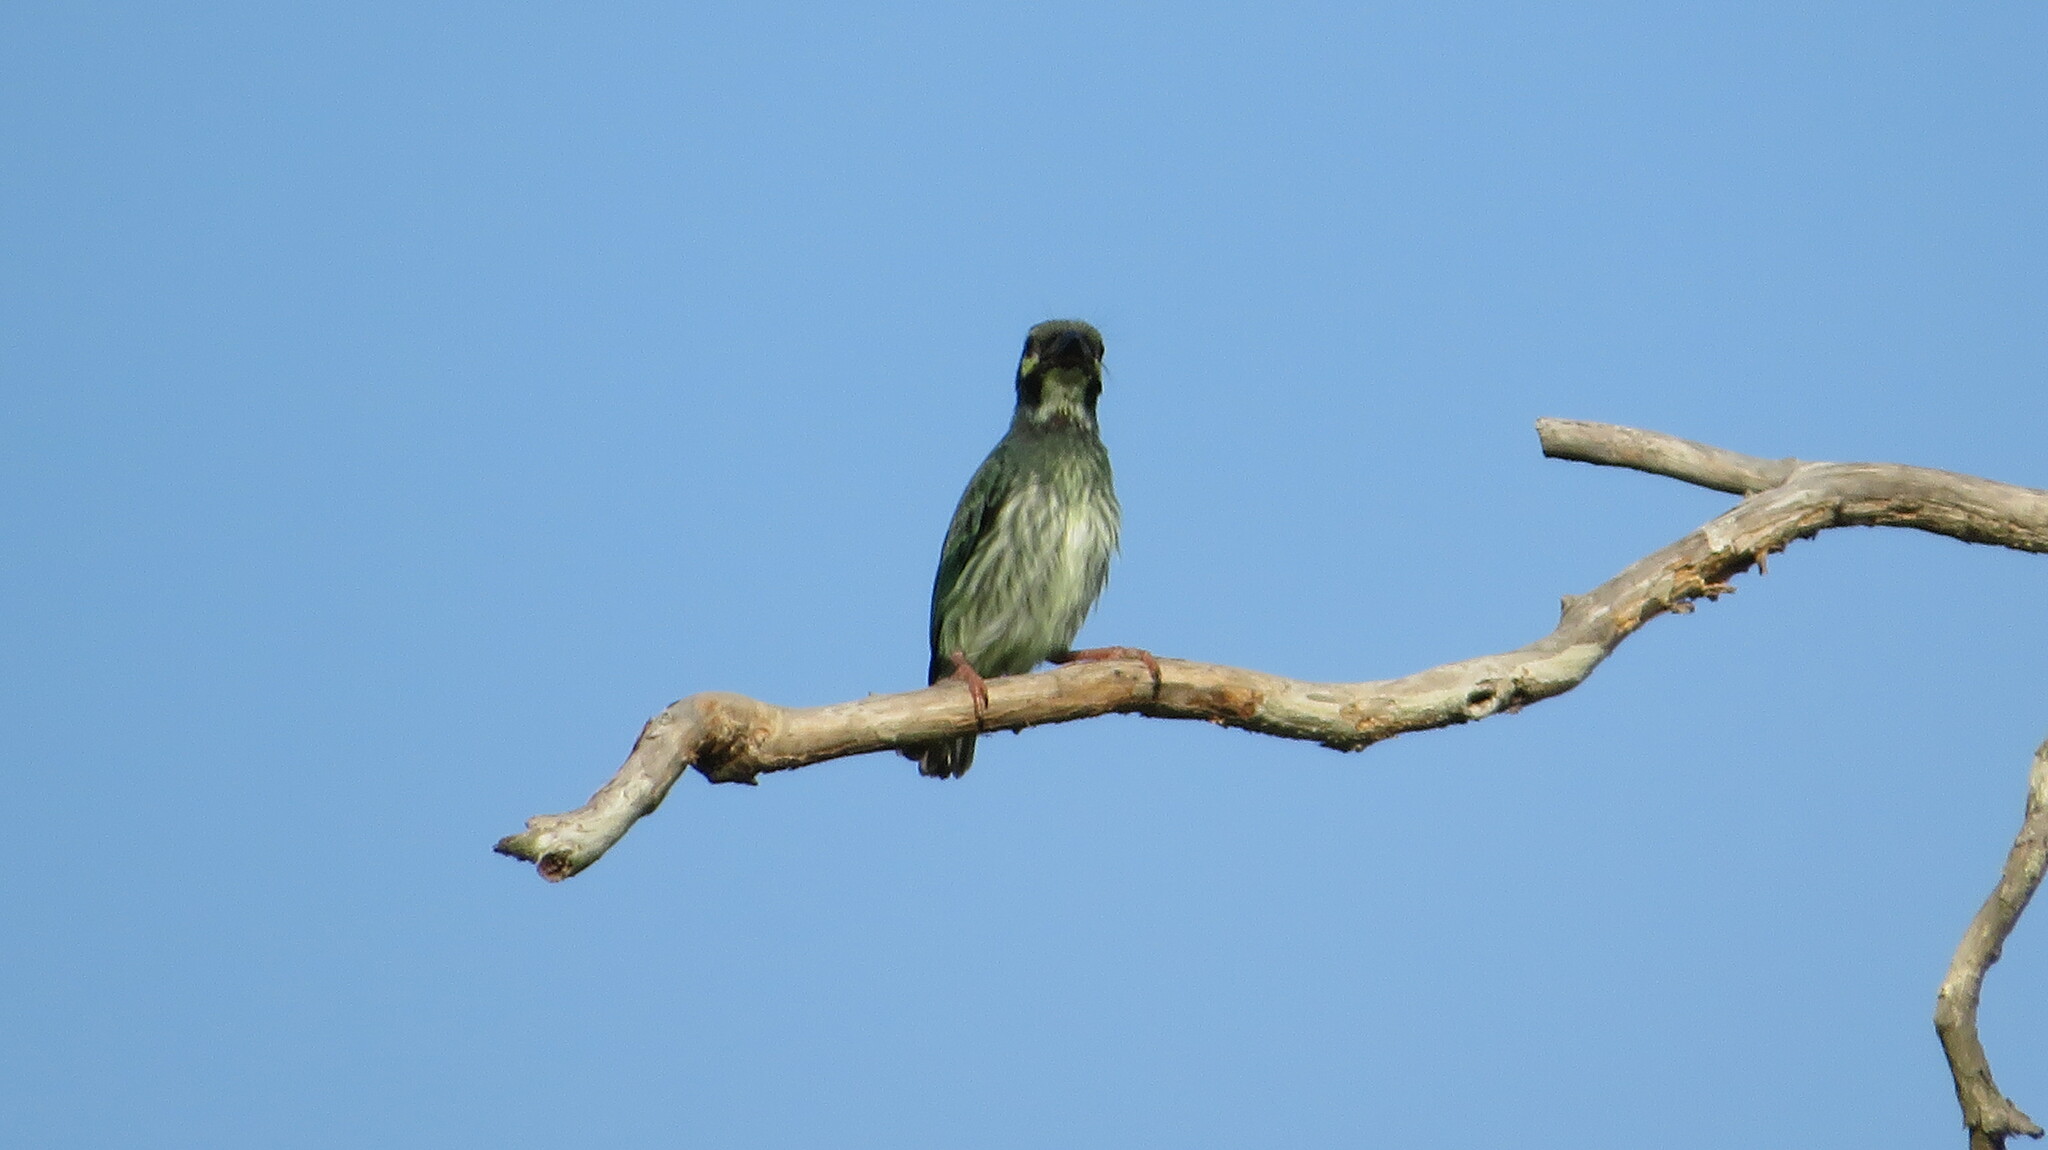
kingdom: Animalia
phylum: Chordata
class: Aves
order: Piciformes
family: Megalaimidae
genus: Psilopogon
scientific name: Psilopogon haemacephalus
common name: Coppersmith barbet
